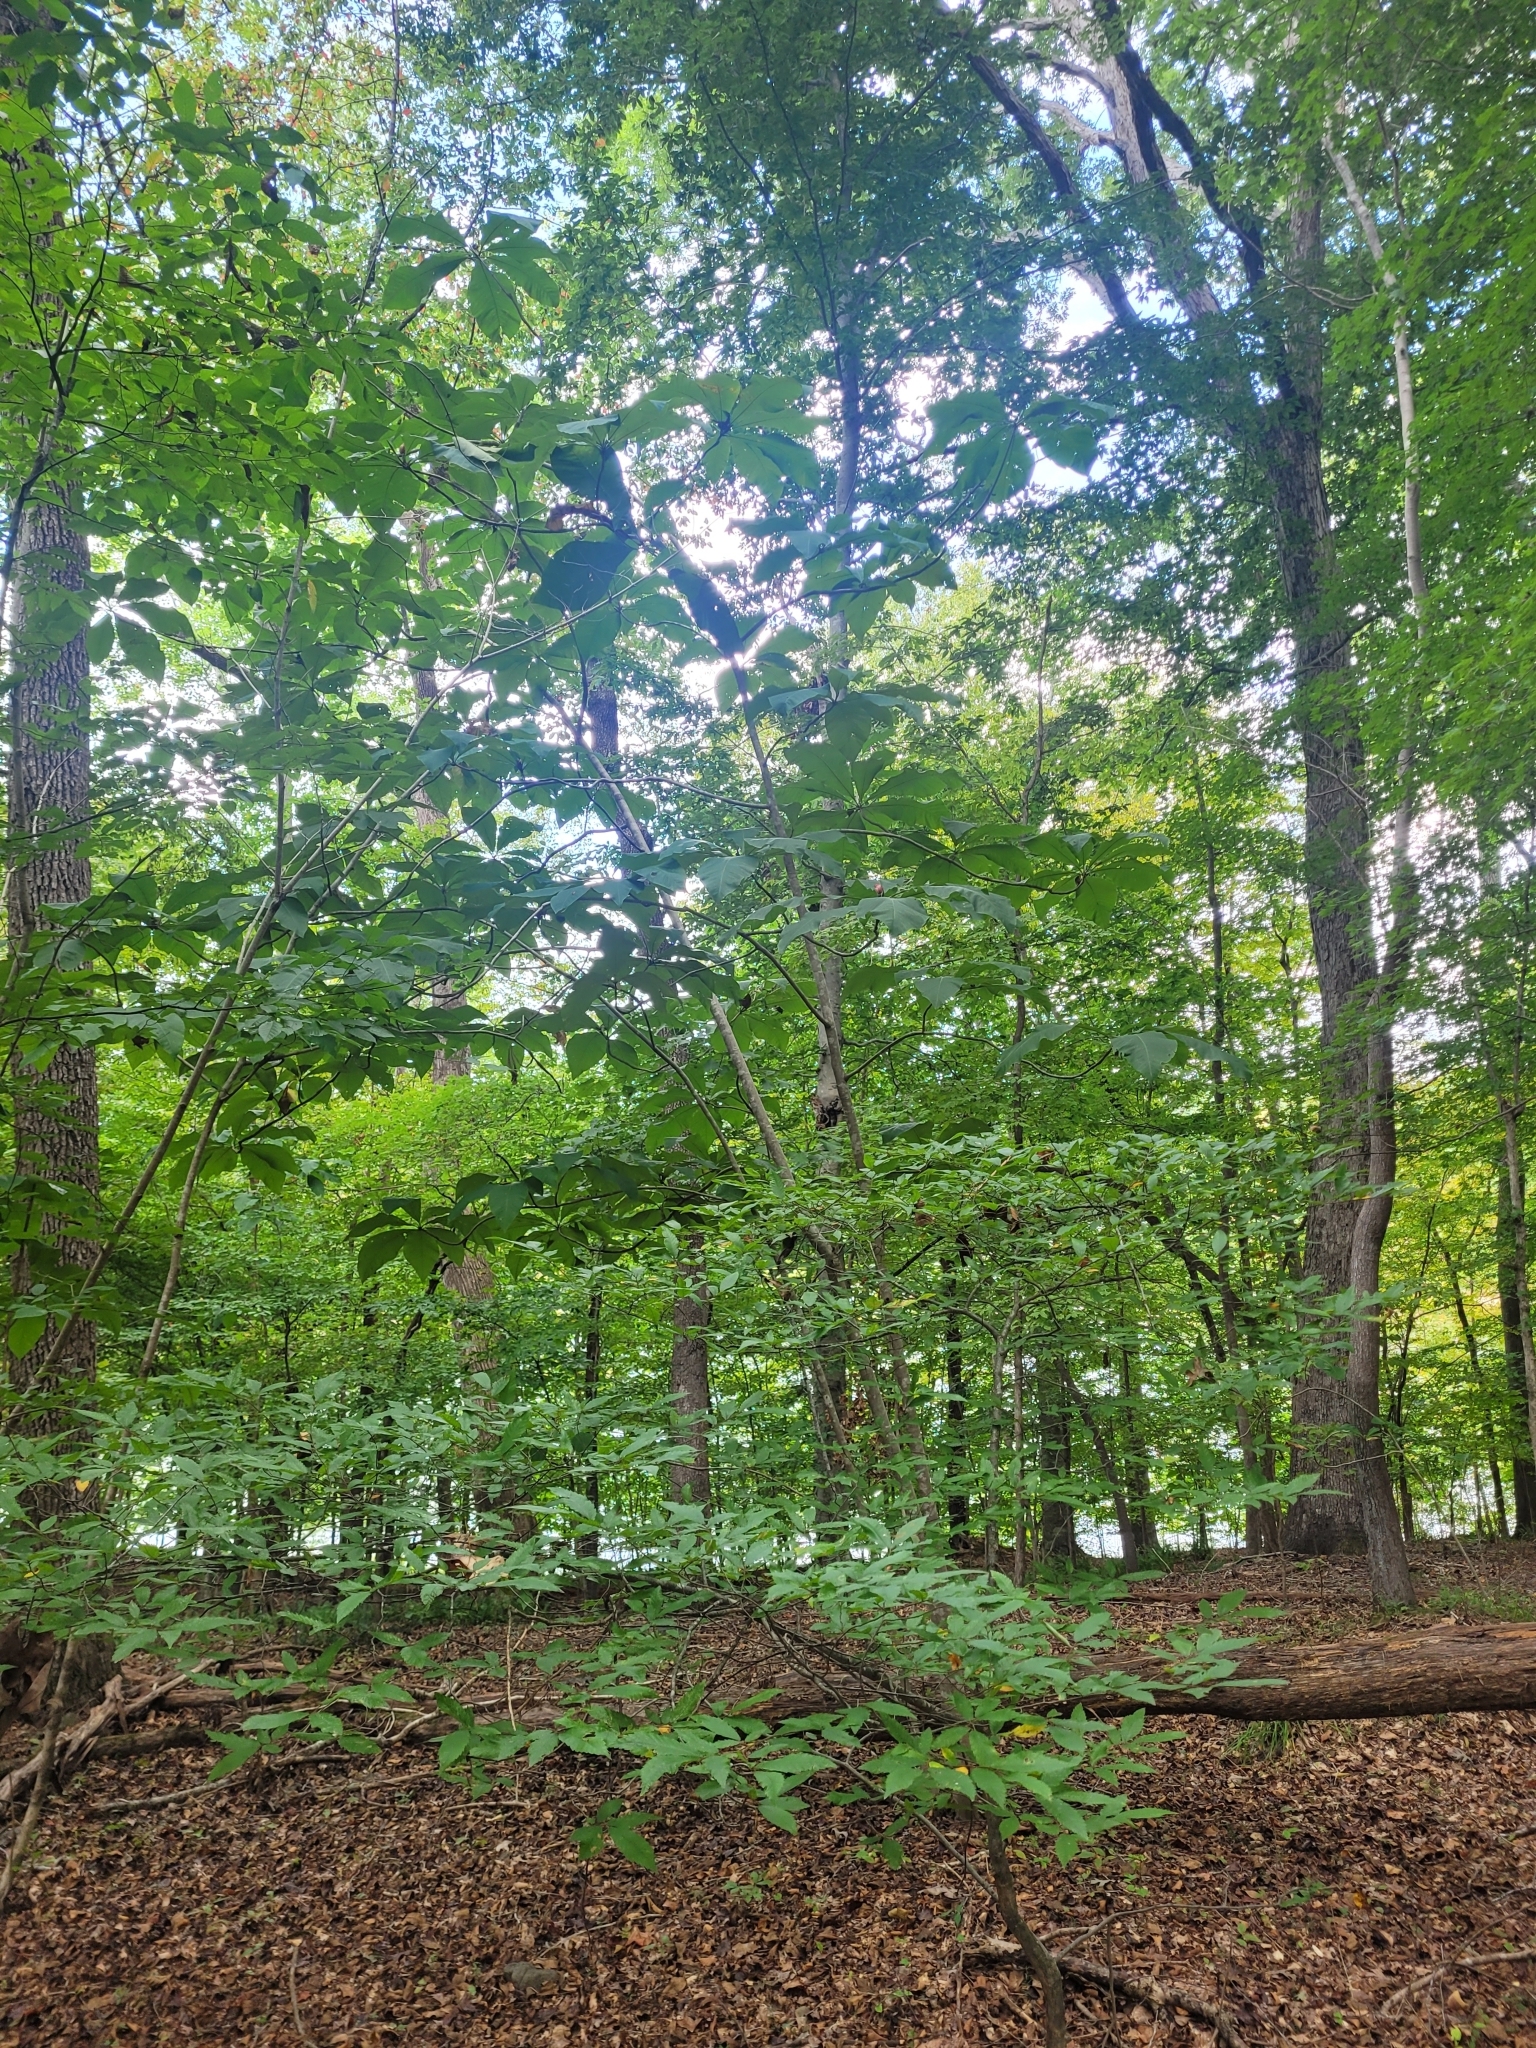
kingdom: Plantae
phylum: Tracheophyta
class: Magnoliopsida
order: Magnoliales
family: Magnoliaceae
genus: Magnolia
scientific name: Magnolia tripetala
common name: Umbrella magnolia
